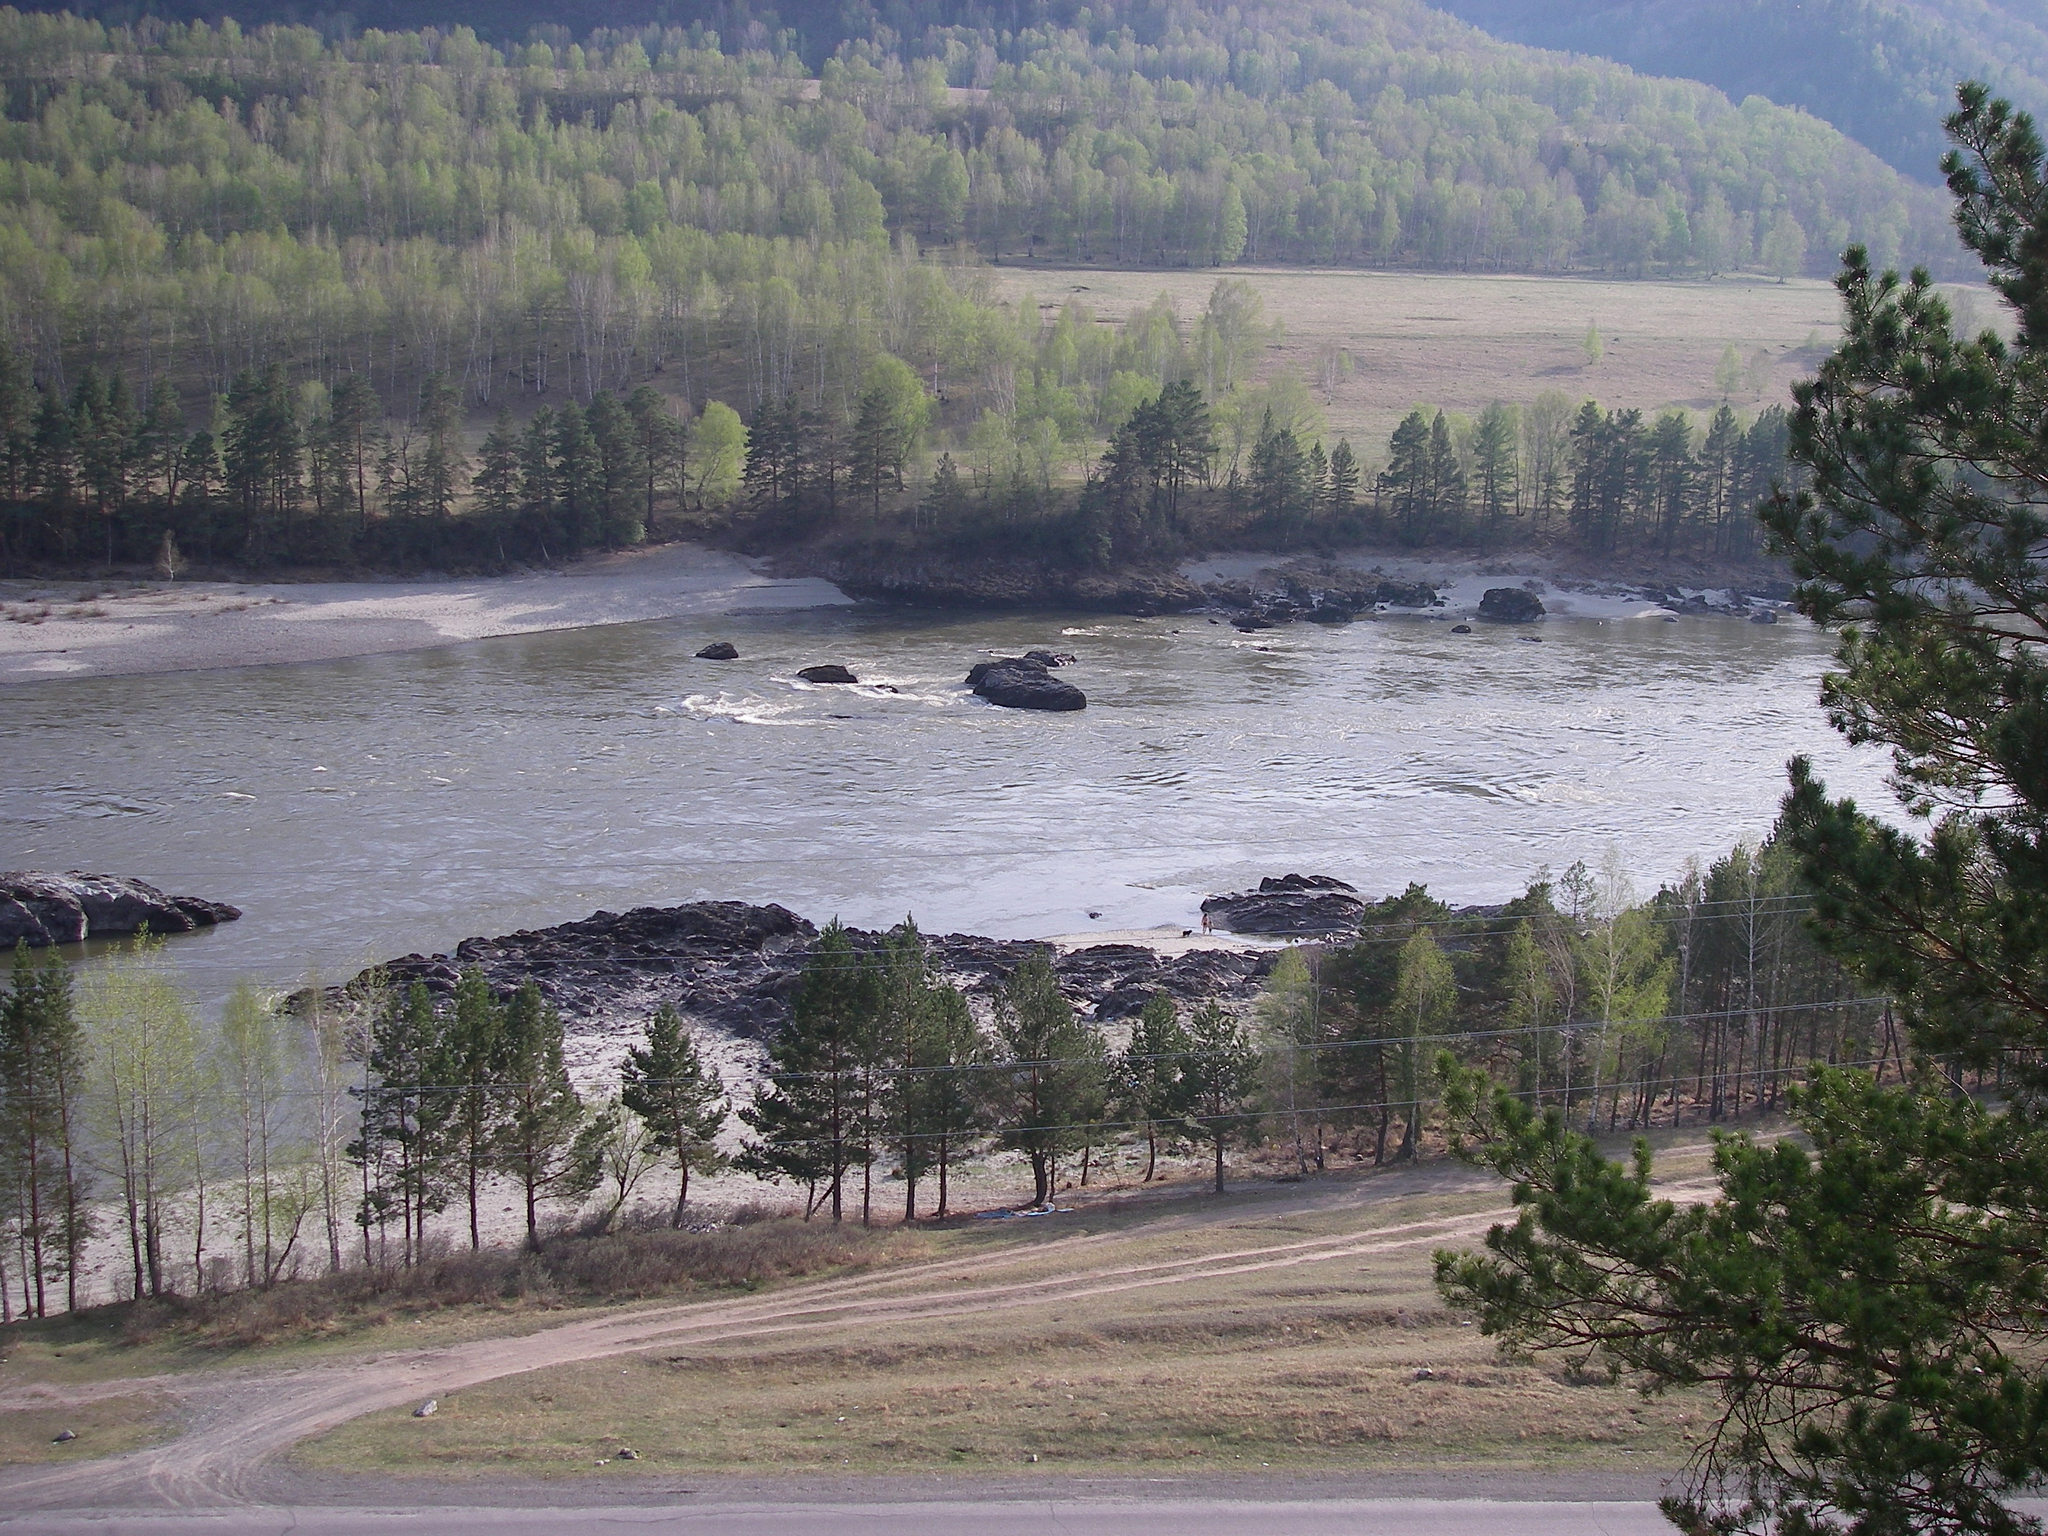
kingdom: Plantae
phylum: Tracheophyta
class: Pinopsida
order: Pinales
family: Pinaceae
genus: Pinus
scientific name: Pinus sylvestris
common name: Scots pine
